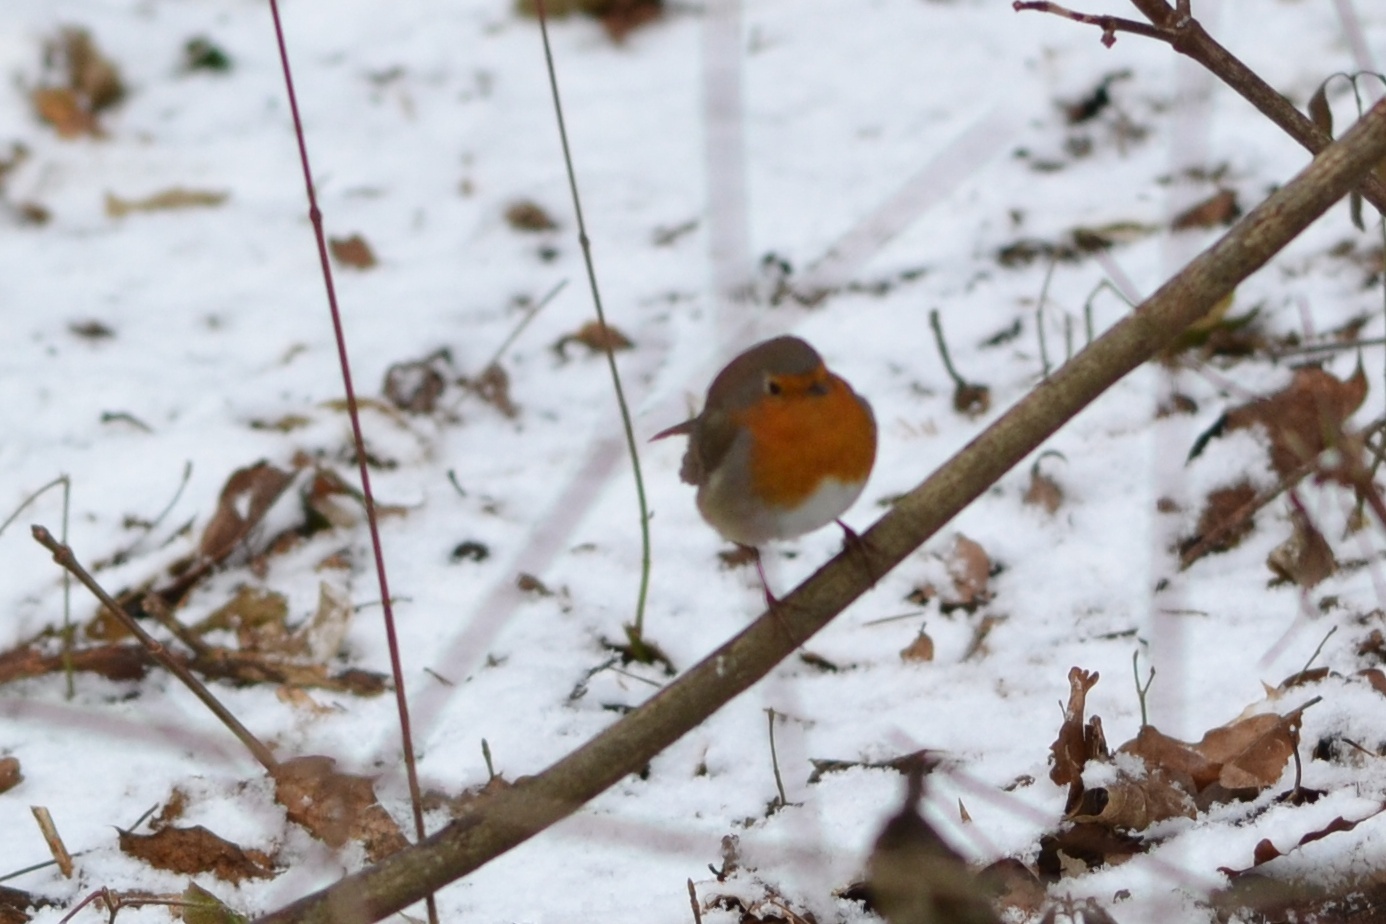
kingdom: Animalia
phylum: Chordata
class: Aves
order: Passeriformes
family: Muscicapidae
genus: Erithacus
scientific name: Erithacus rubecula
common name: European robin
